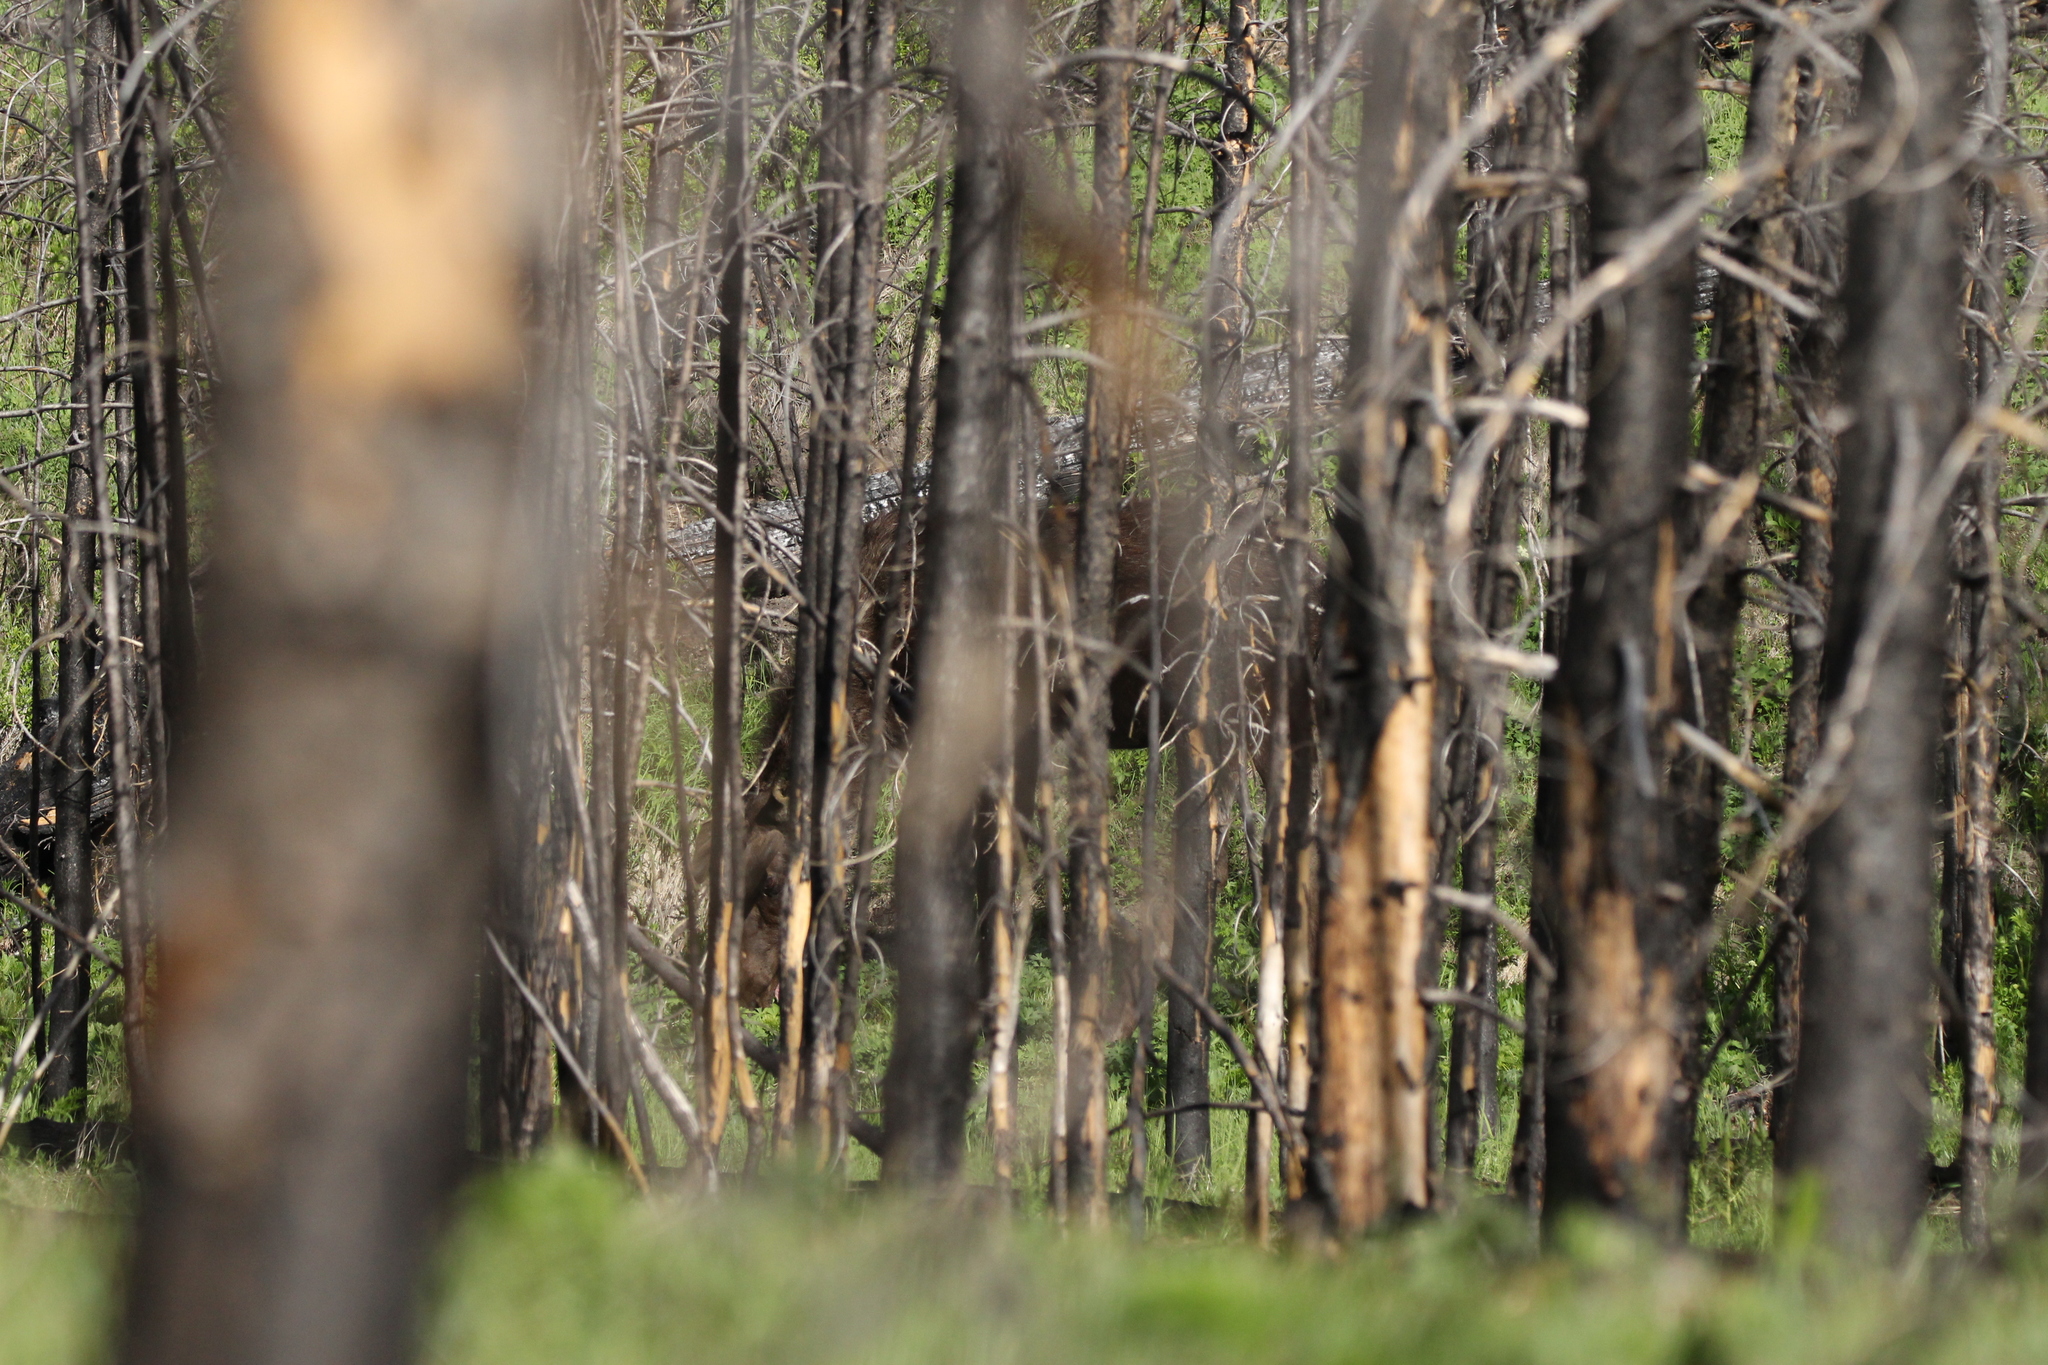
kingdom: Animalia
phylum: Chordata
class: Mammalia
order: Artiodactyla
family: Cervidae
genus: Alces
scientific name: Alces alces
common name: Moose
